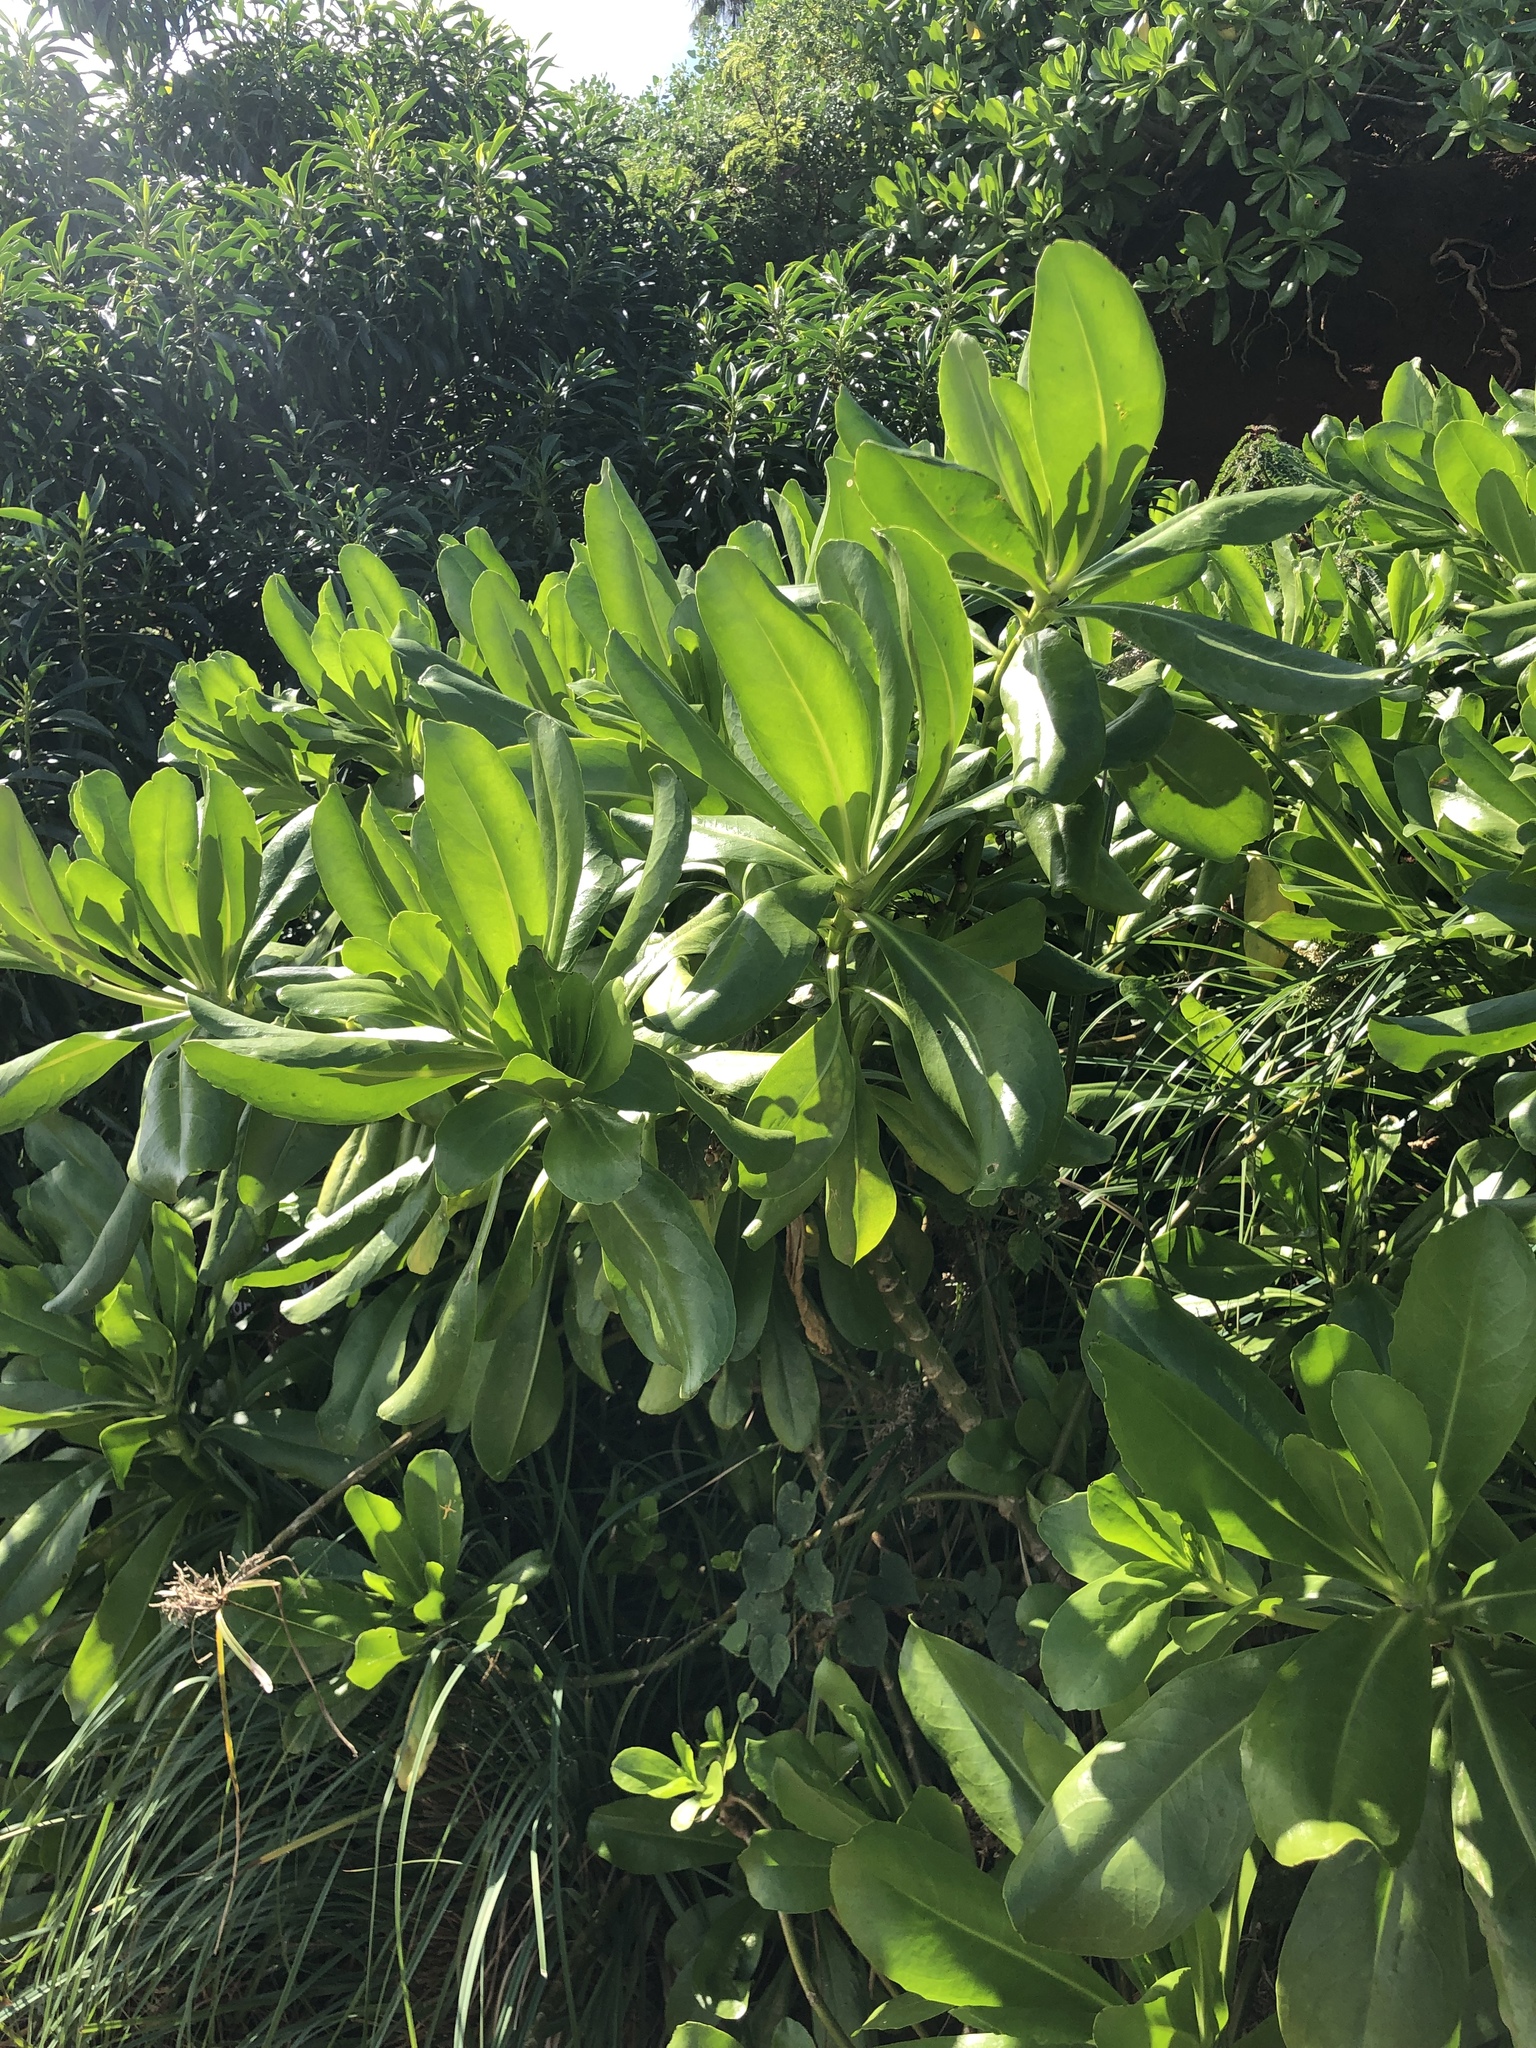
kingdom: Plantae
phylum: Tracheophyta
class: Magnoliopsida
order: Asterales
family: Goodeniaceae
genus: Scaevola
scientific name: Scaevola taccada
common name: Sea lettucetree
